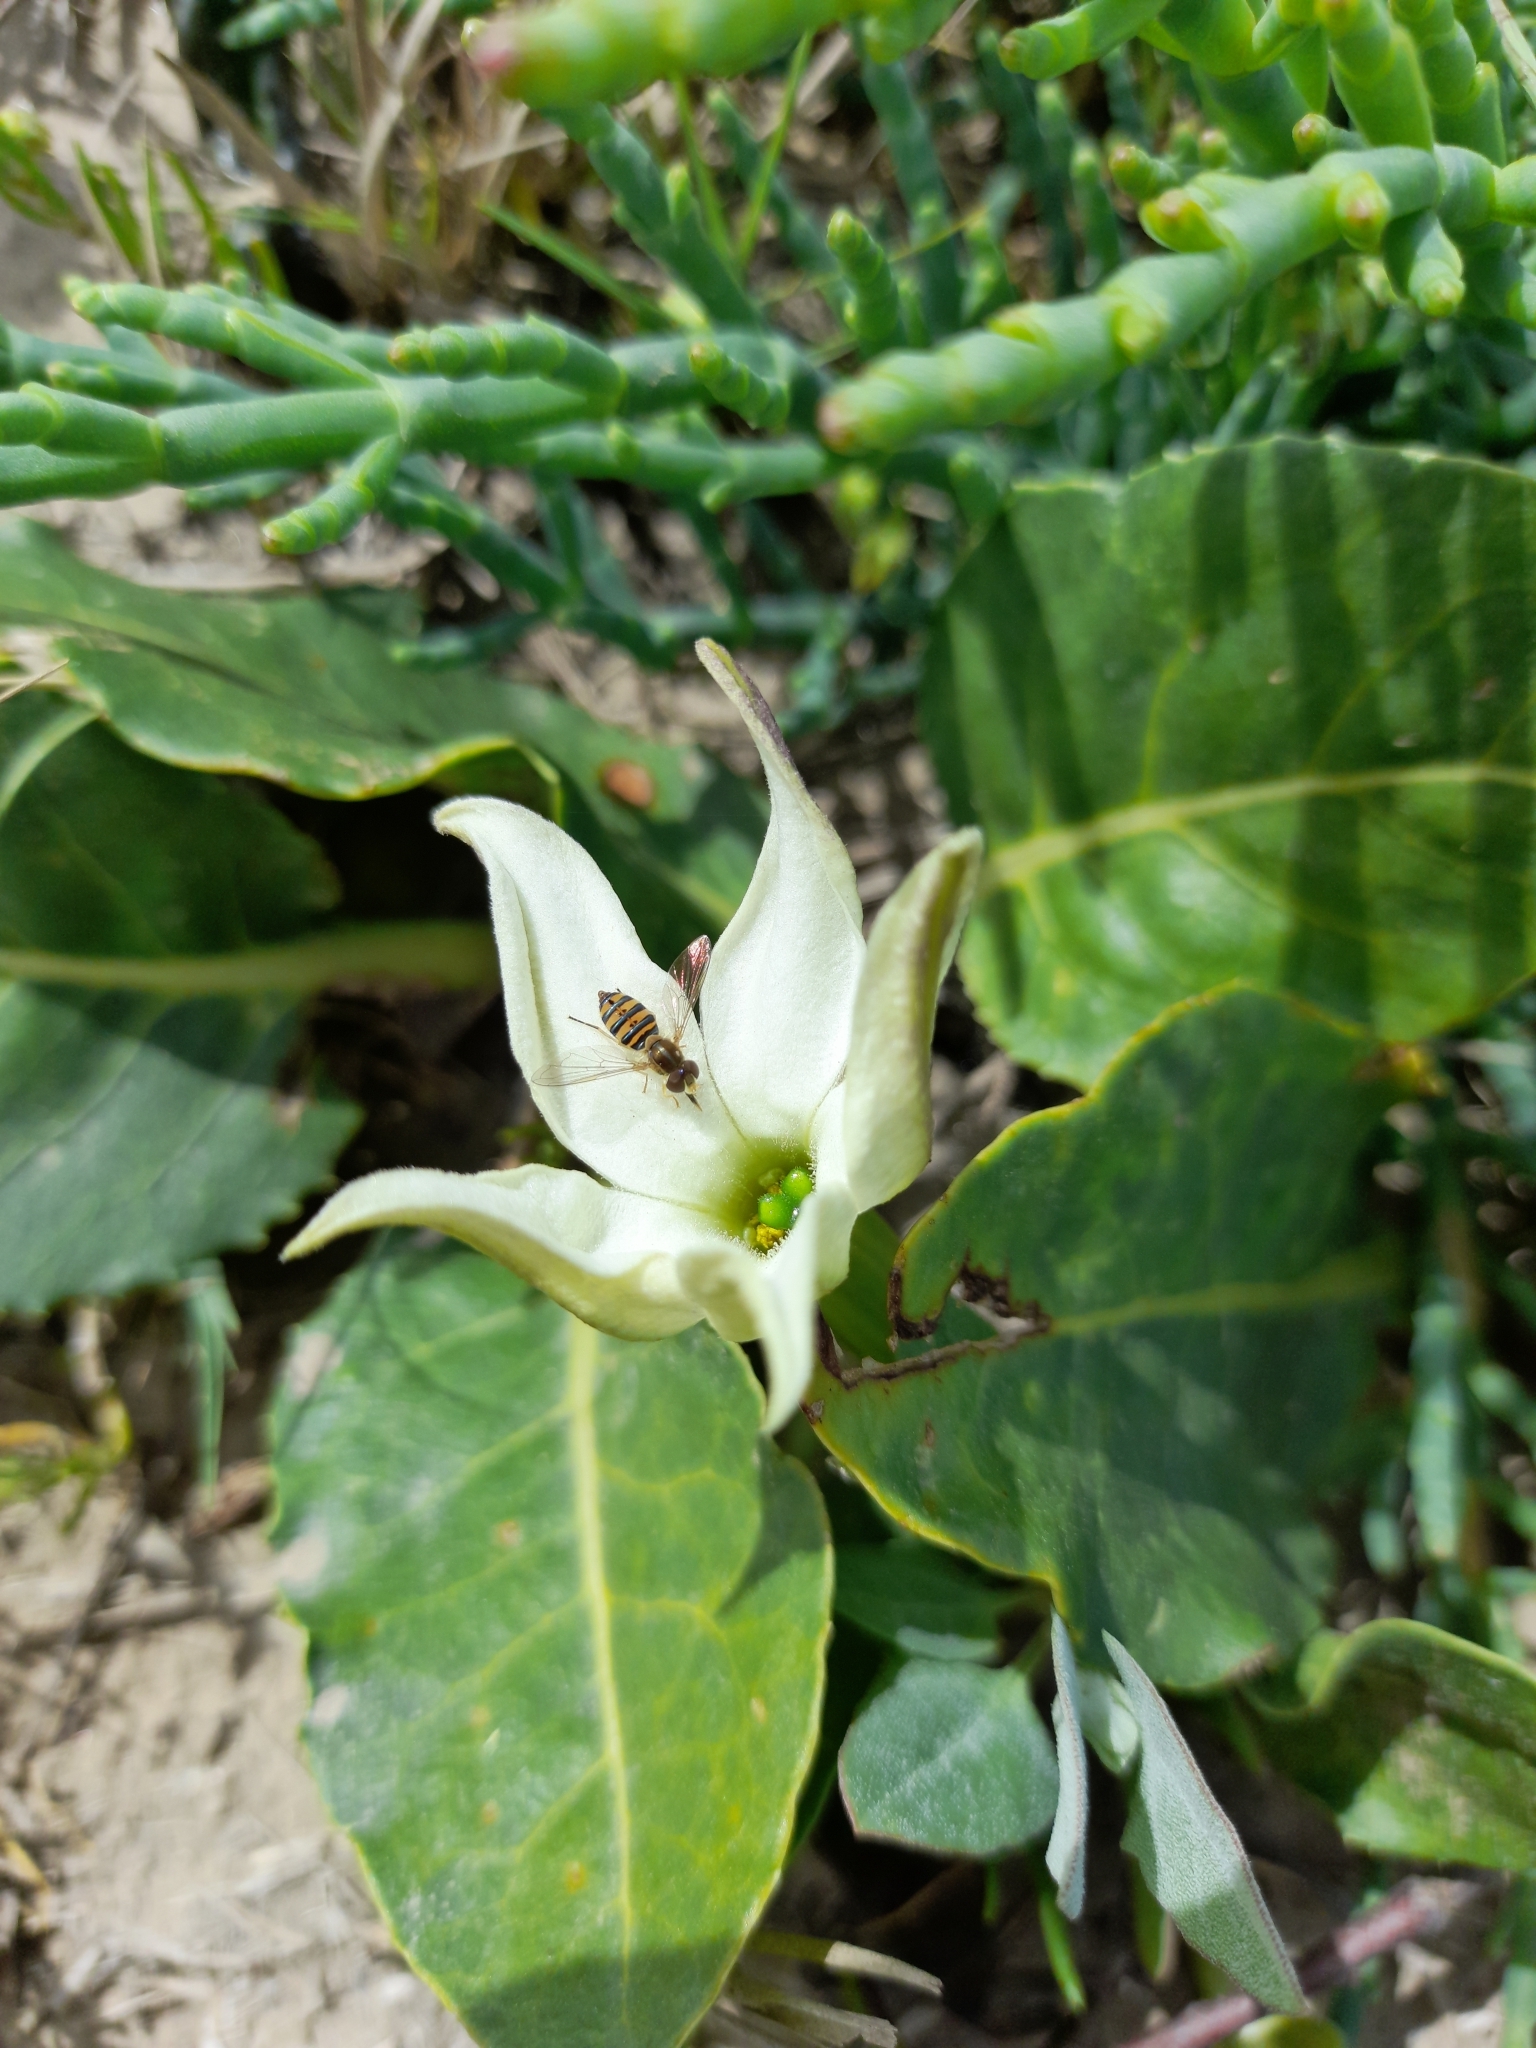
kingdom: Animalia
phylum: Arthropoda
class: Insecta
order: Diptera
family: Syrphidae
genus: Toxomerus
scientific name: Toxomerus
